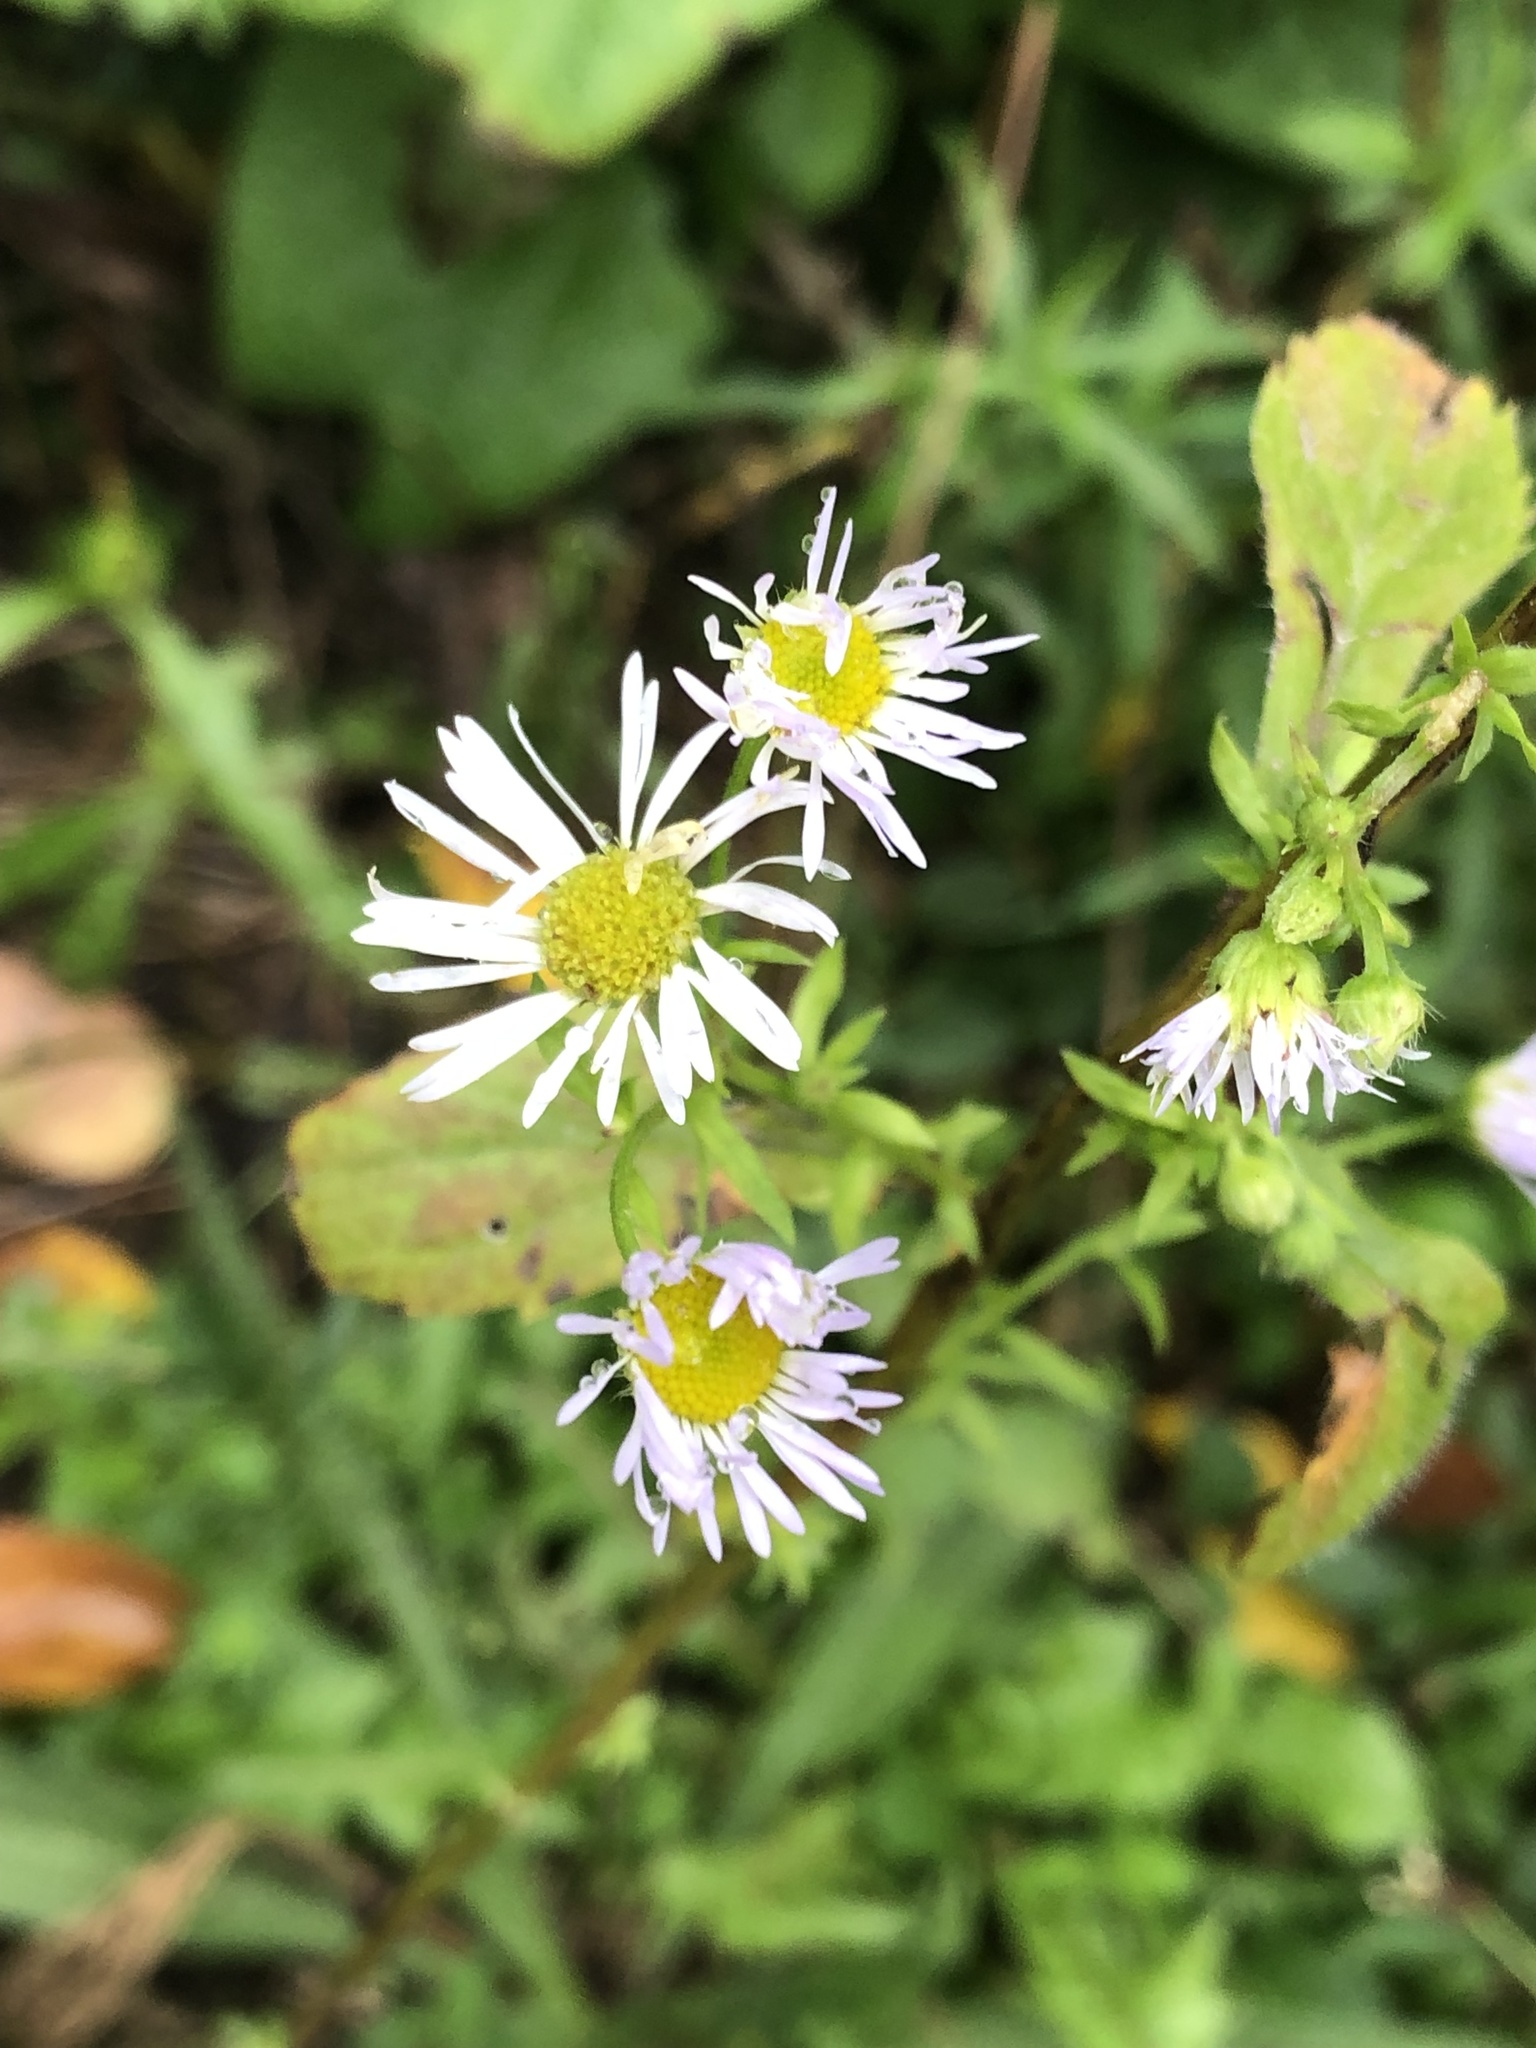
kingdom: Plantae
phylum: Tracheophyta
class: Magnoliopsida
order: Asterales
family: Asteraceae
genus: Erigeron
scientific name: Erigeron annuus
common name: Tall fleabane
